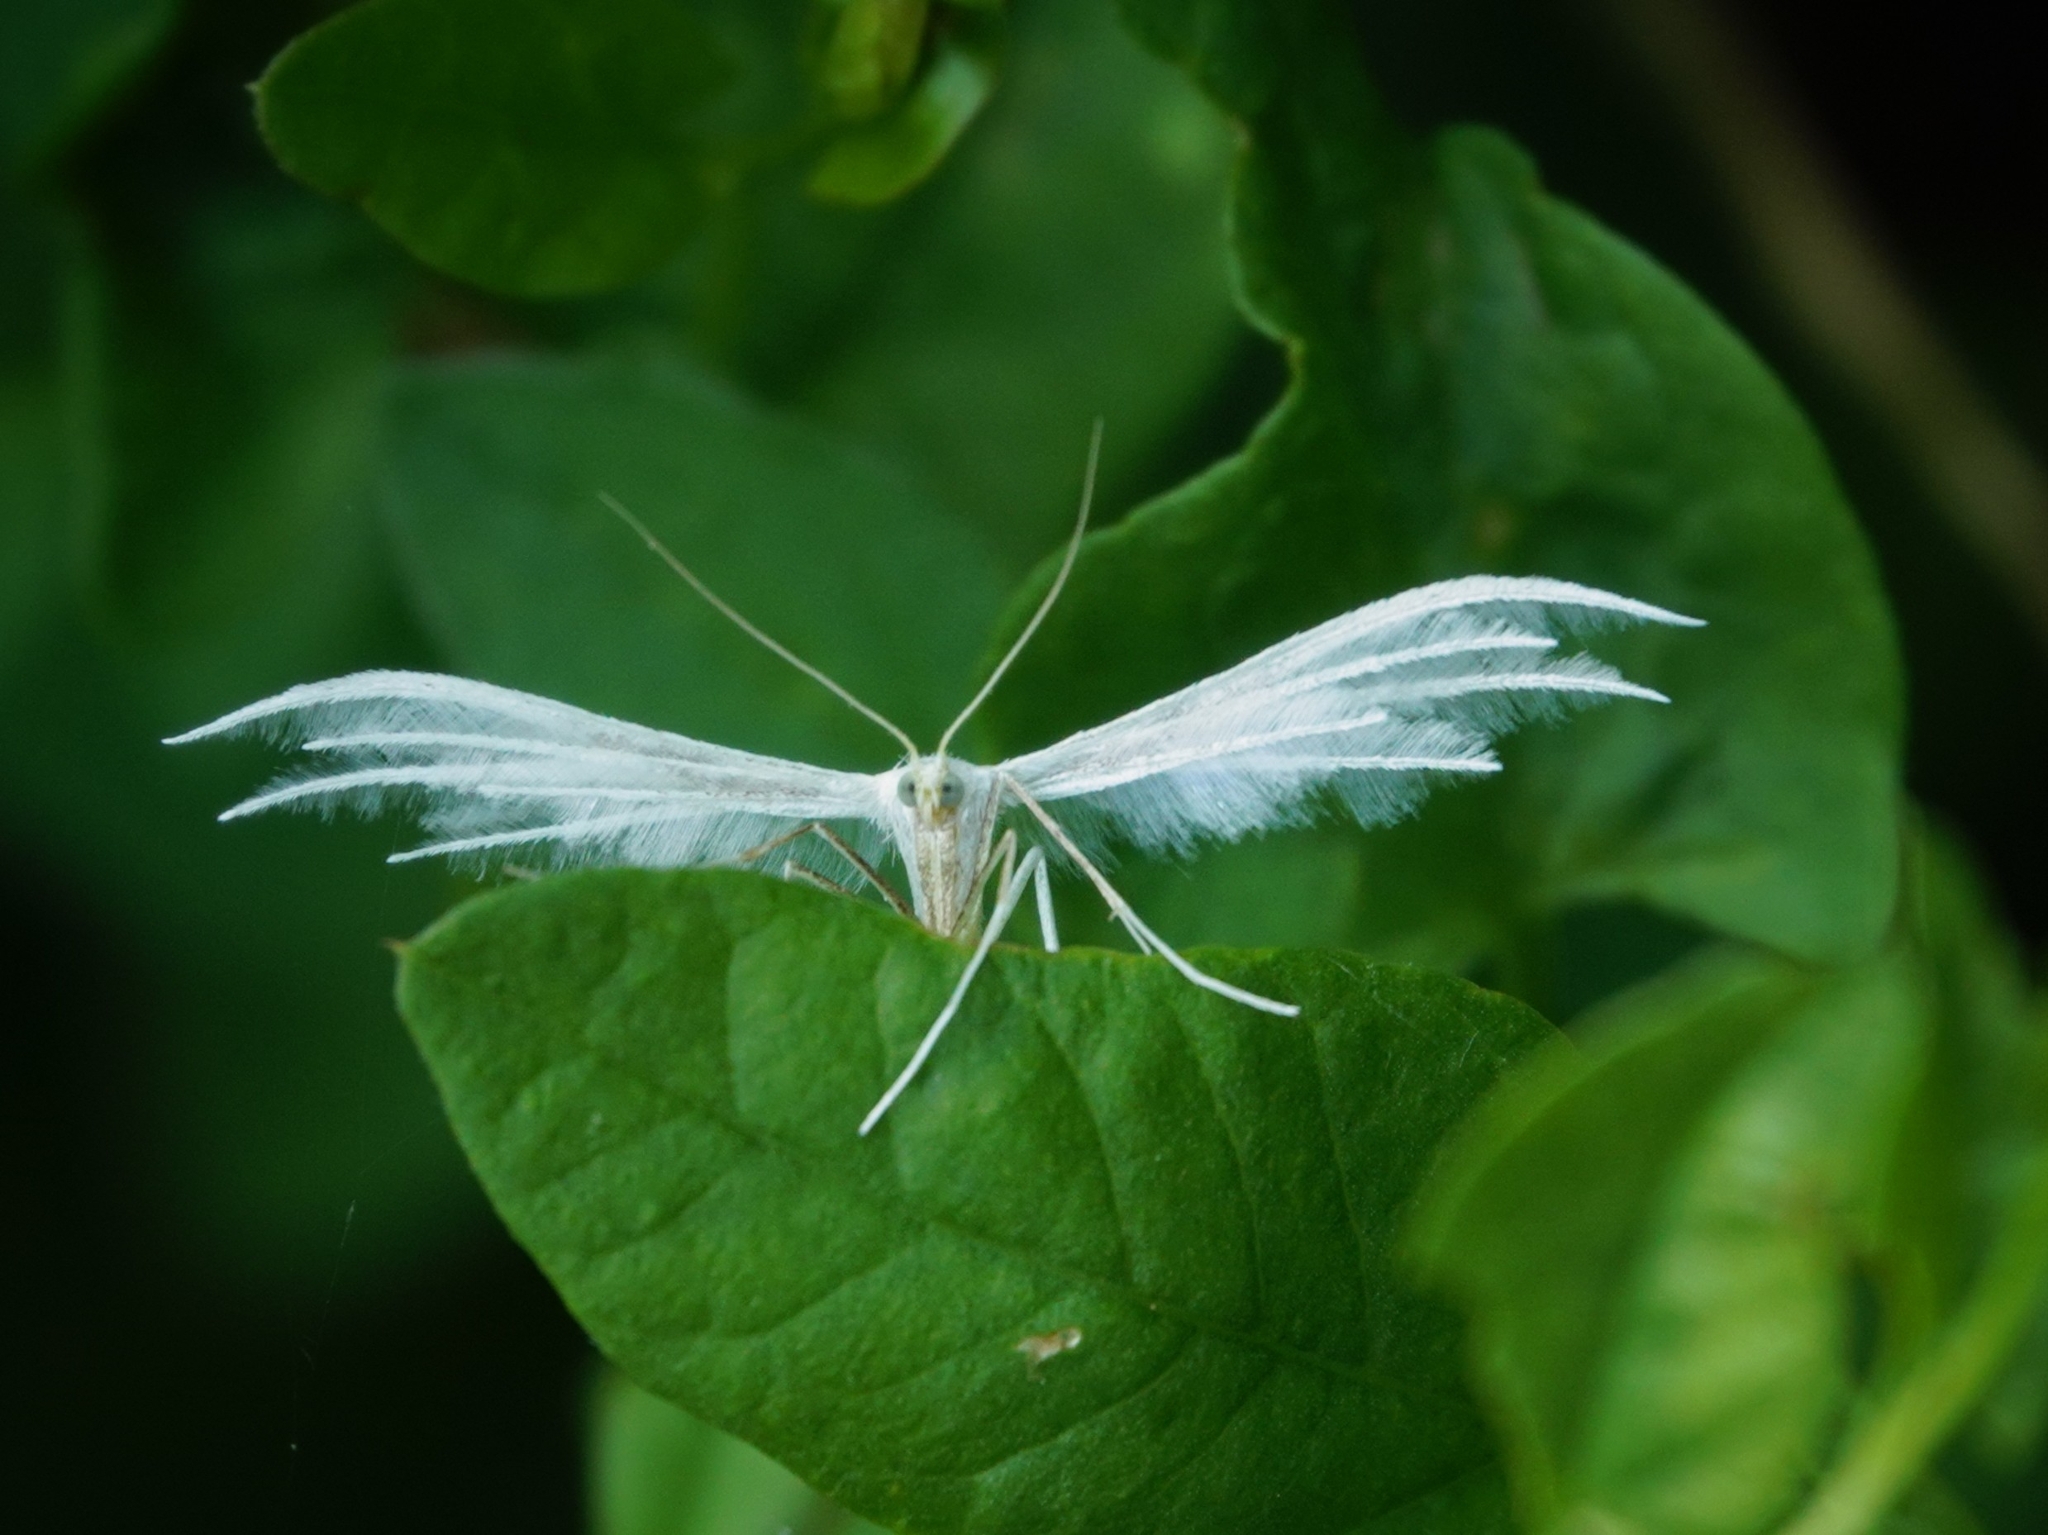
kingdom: Animalia
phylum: Arthropoda
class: Insecta
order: Lepidoptera
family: Pterophoridae
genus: Pterophorus
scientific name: Pterophorus pentadactyla
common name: White plume moth
